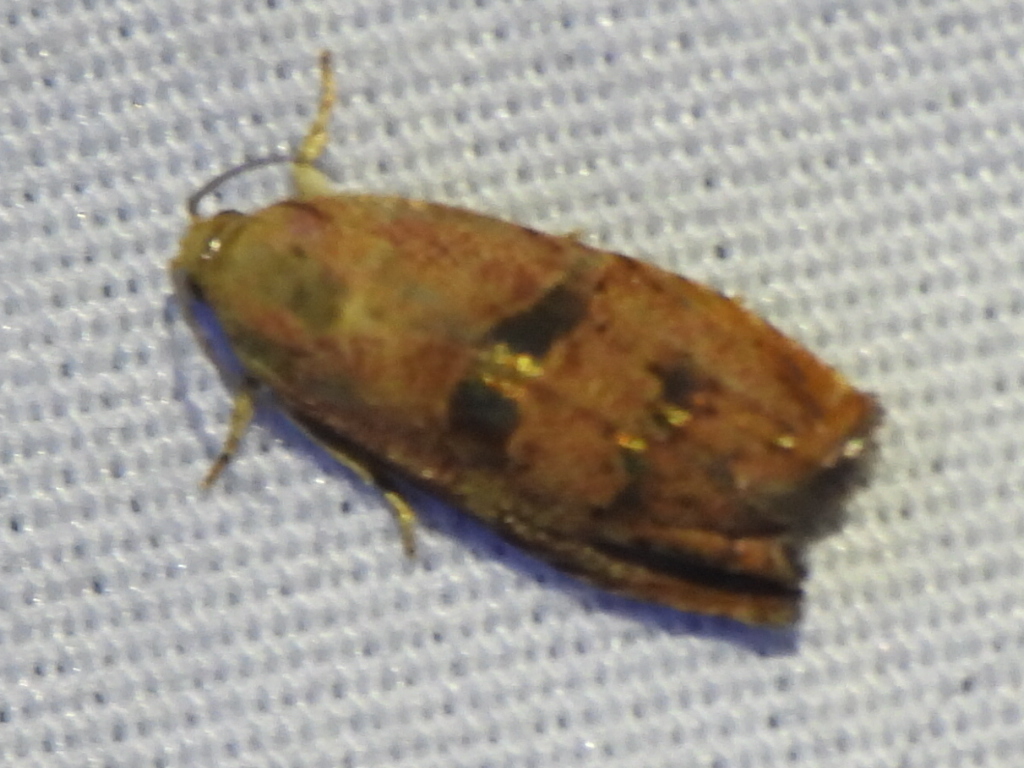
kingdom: Animalia
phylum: Arthropoda
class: Insecta
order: Lepidoptera
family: Tortricidae
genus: Cydia
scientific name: Cydia latiferreana
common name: Filbertworm moth
